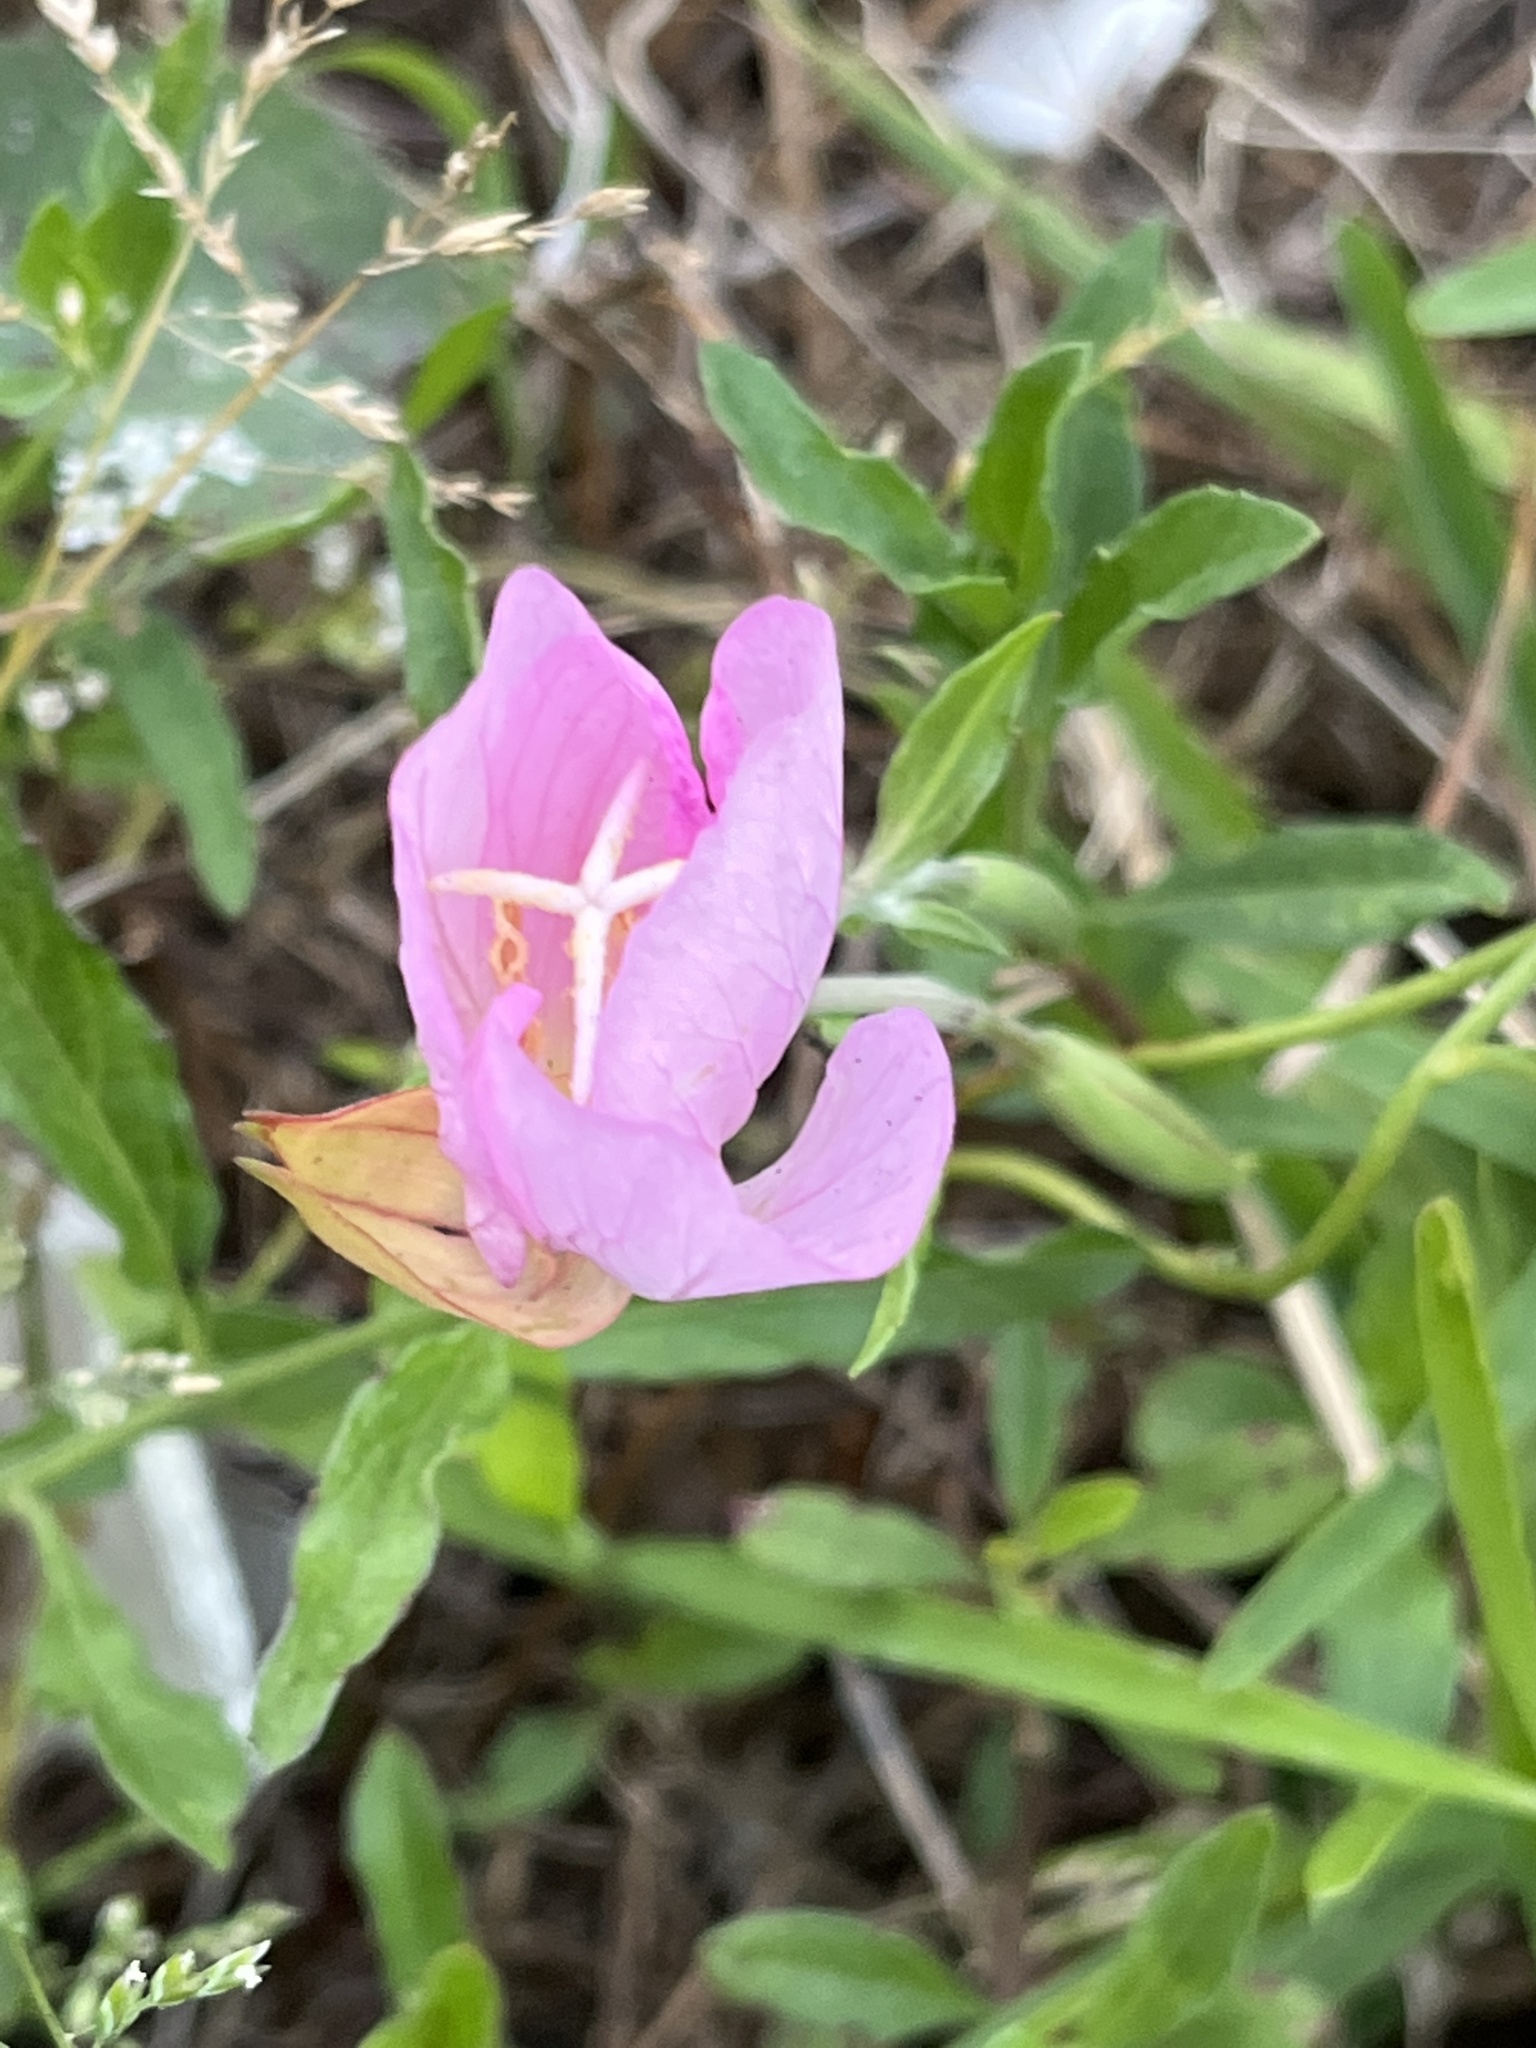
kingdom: Plantae
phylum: Tracheophyta
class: Magnoliopsida
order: Myrtales
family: Onagraceae
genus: Oenothera
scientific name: Oenothera speciosa
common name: White evening-primrose
